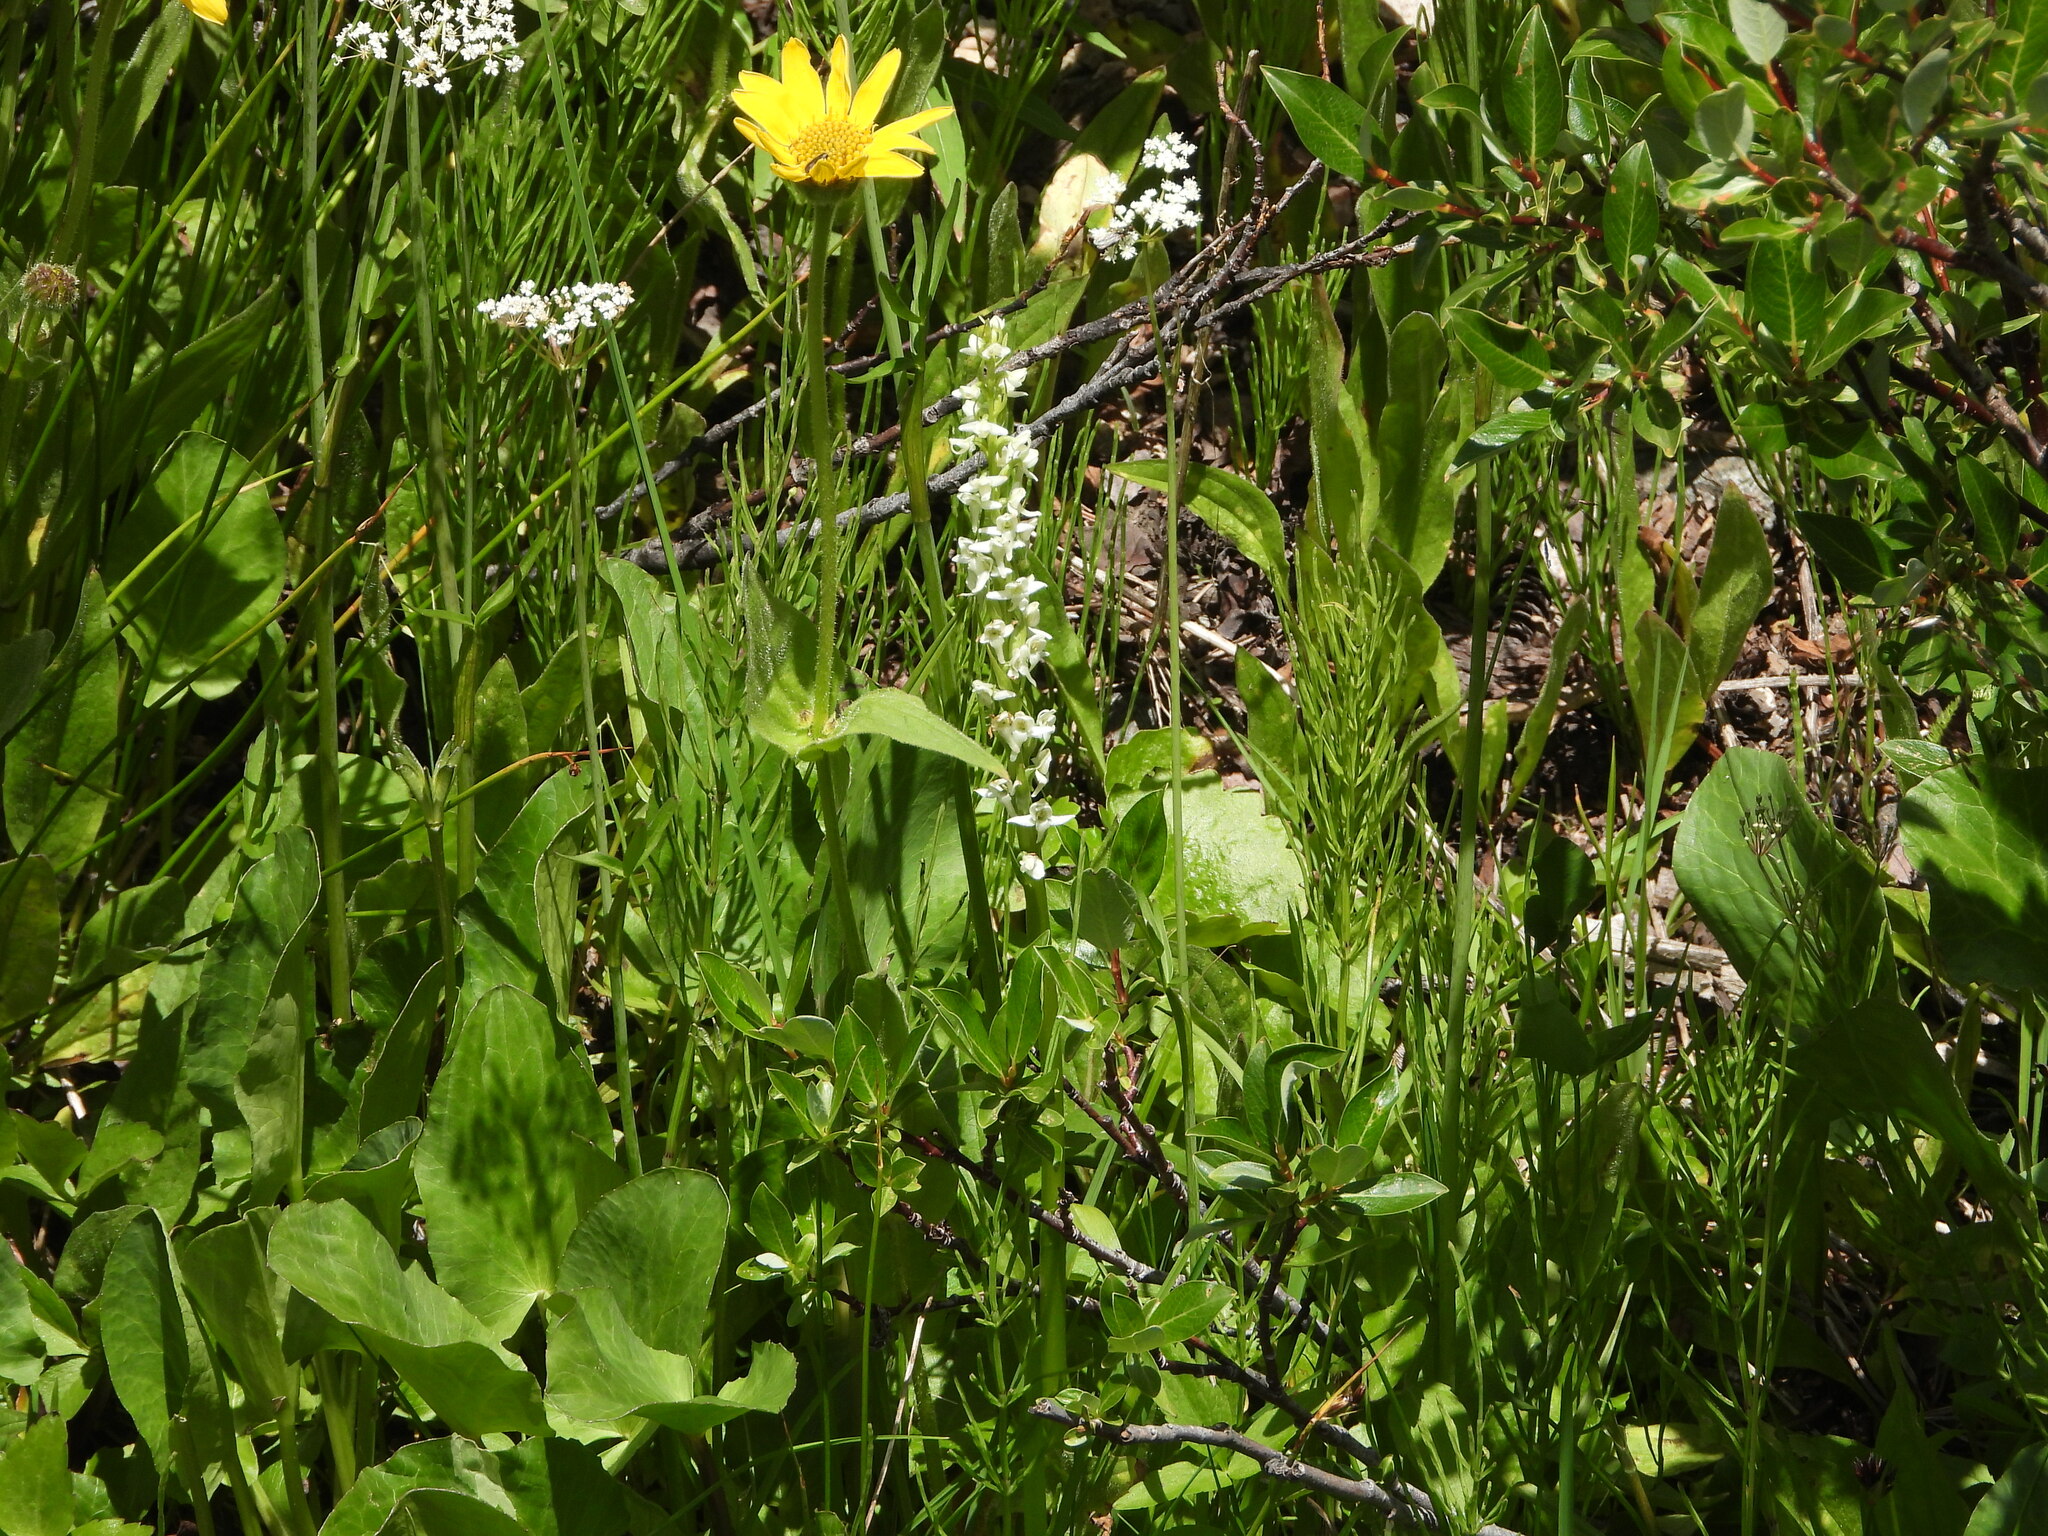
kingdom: Plantae
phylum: Tracheophyta
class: Liliopsida
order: Asparagales
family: Orchidaceae
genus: Platanthera
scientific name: Platanthera dilatata
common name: Bog candles
